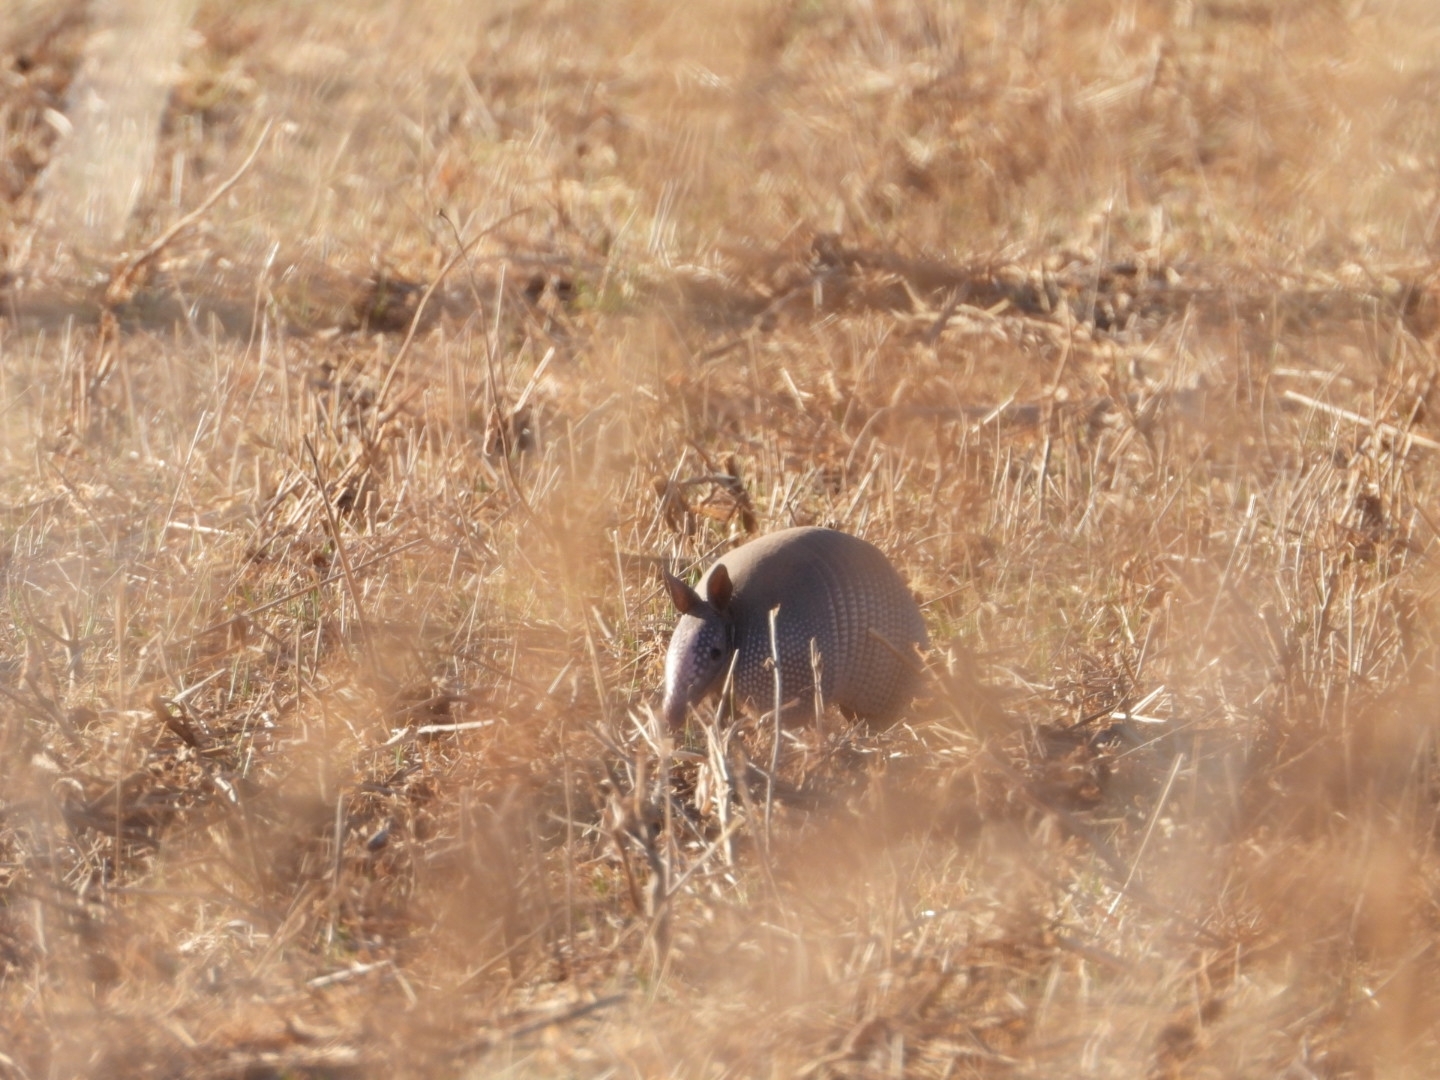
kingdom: Animalia
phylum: Chordata
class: Mammalia
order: Cingulata
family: Dasypodidae
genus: Dasypus
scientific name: Dasypus novemcinctus
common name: Nine-banded armadillo
